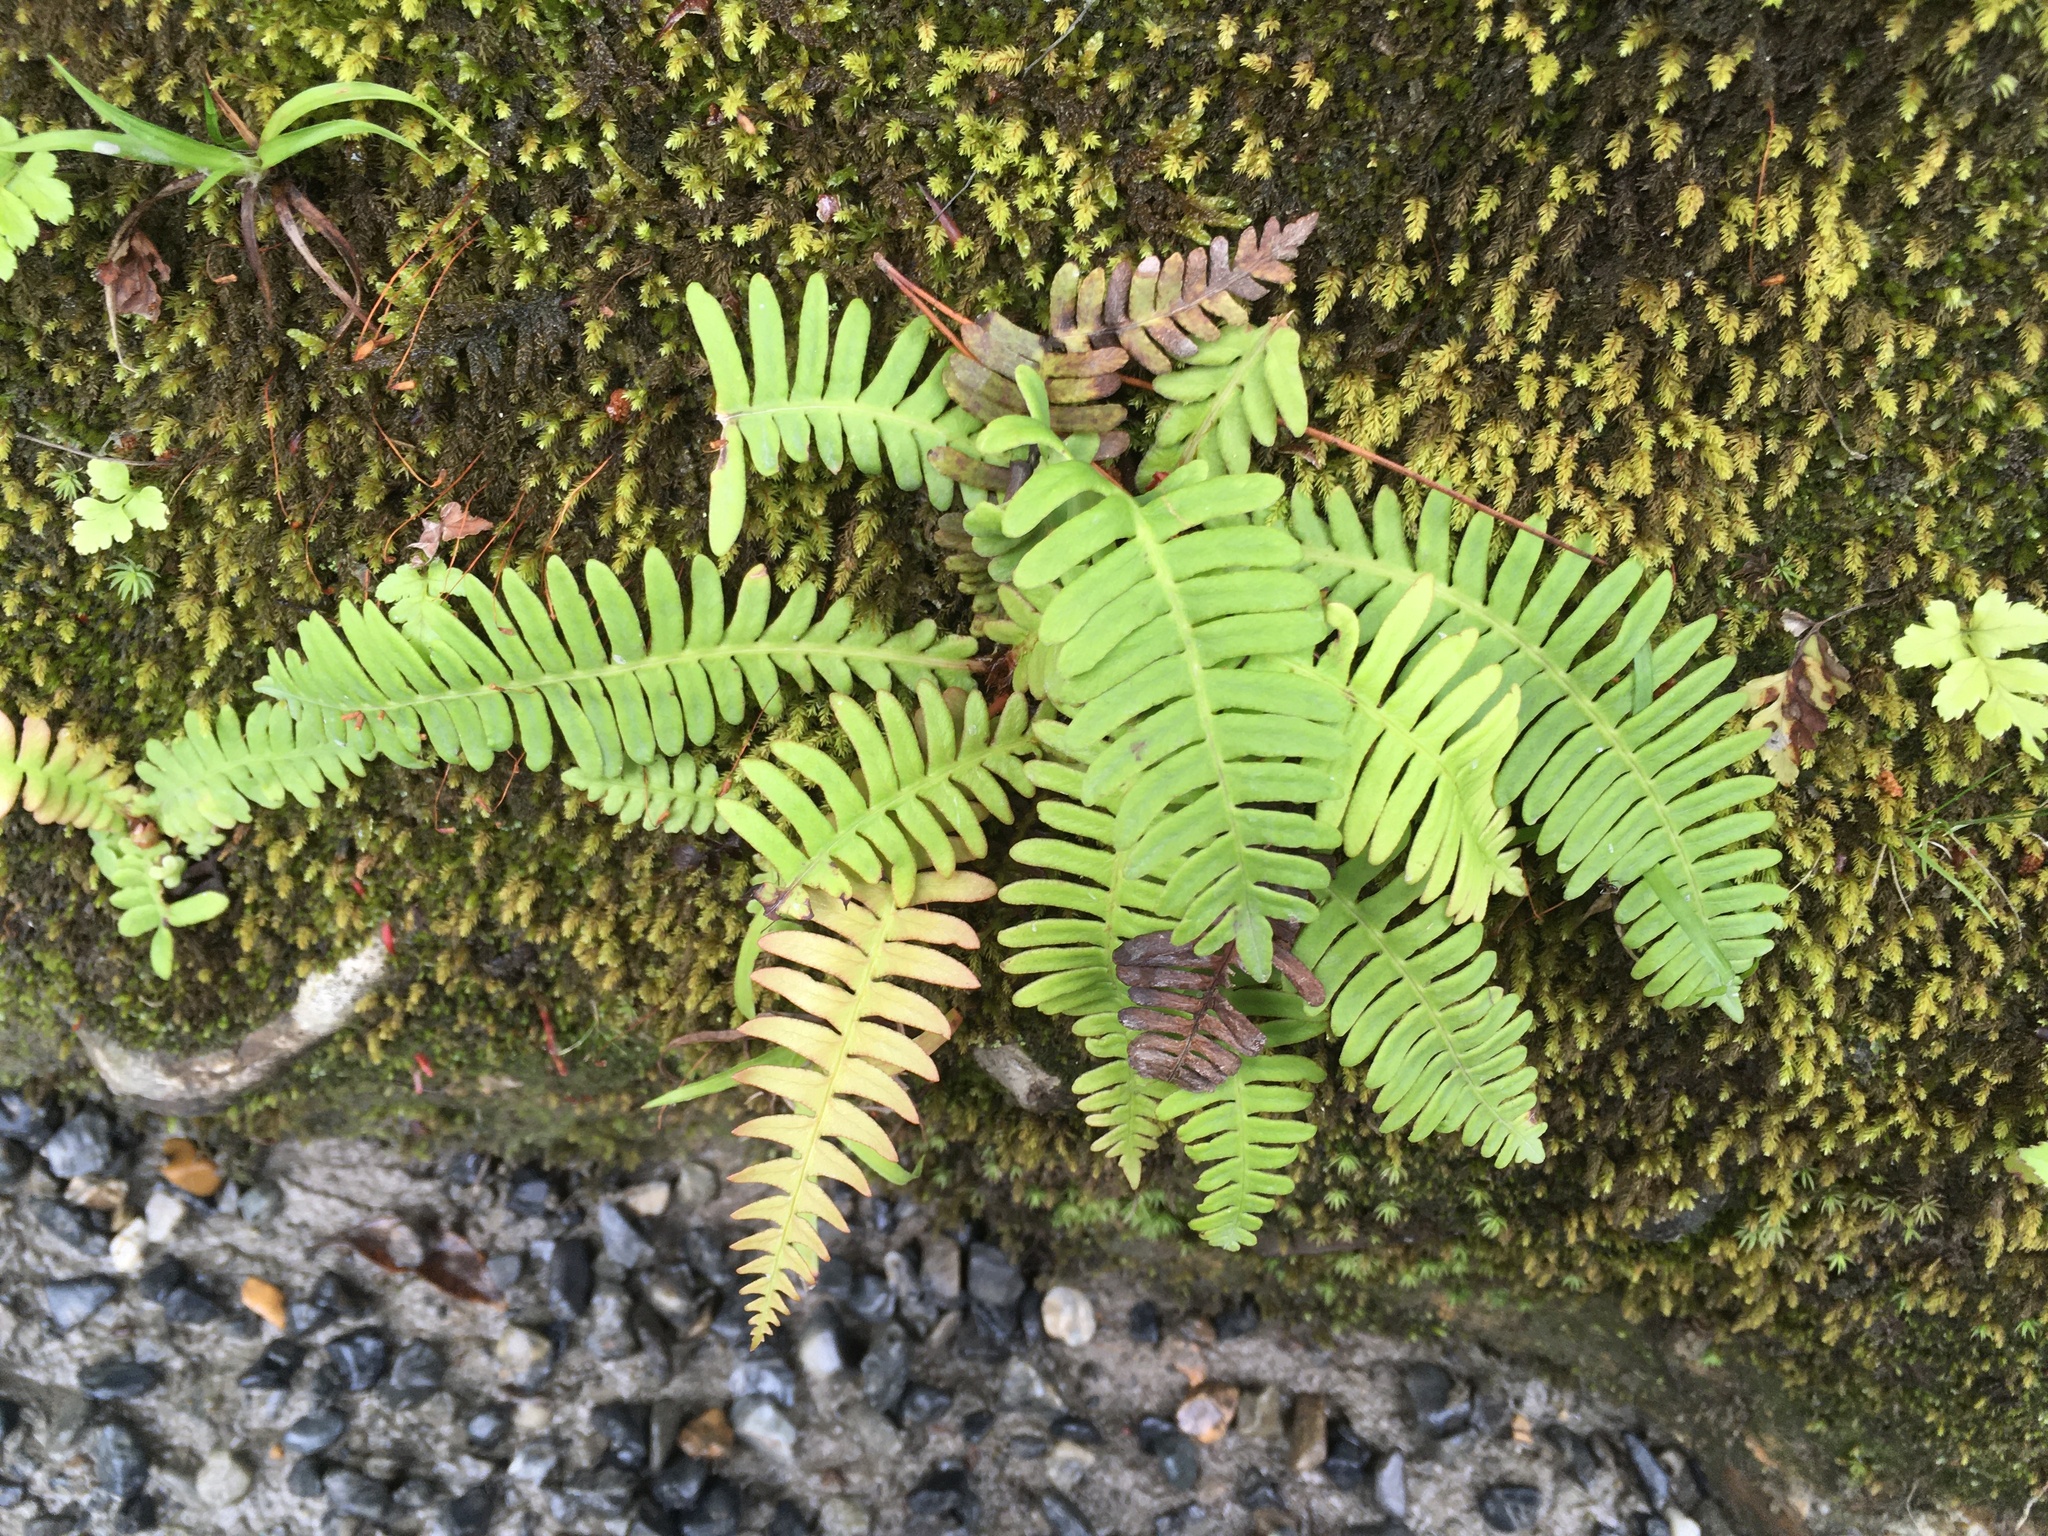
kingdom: Plantae
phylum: Tracheophyta
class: Polypodiopsida
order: Polypodiales
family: Blechnaceae
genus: Spicantopsis
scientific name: Spicantopsis niponica
